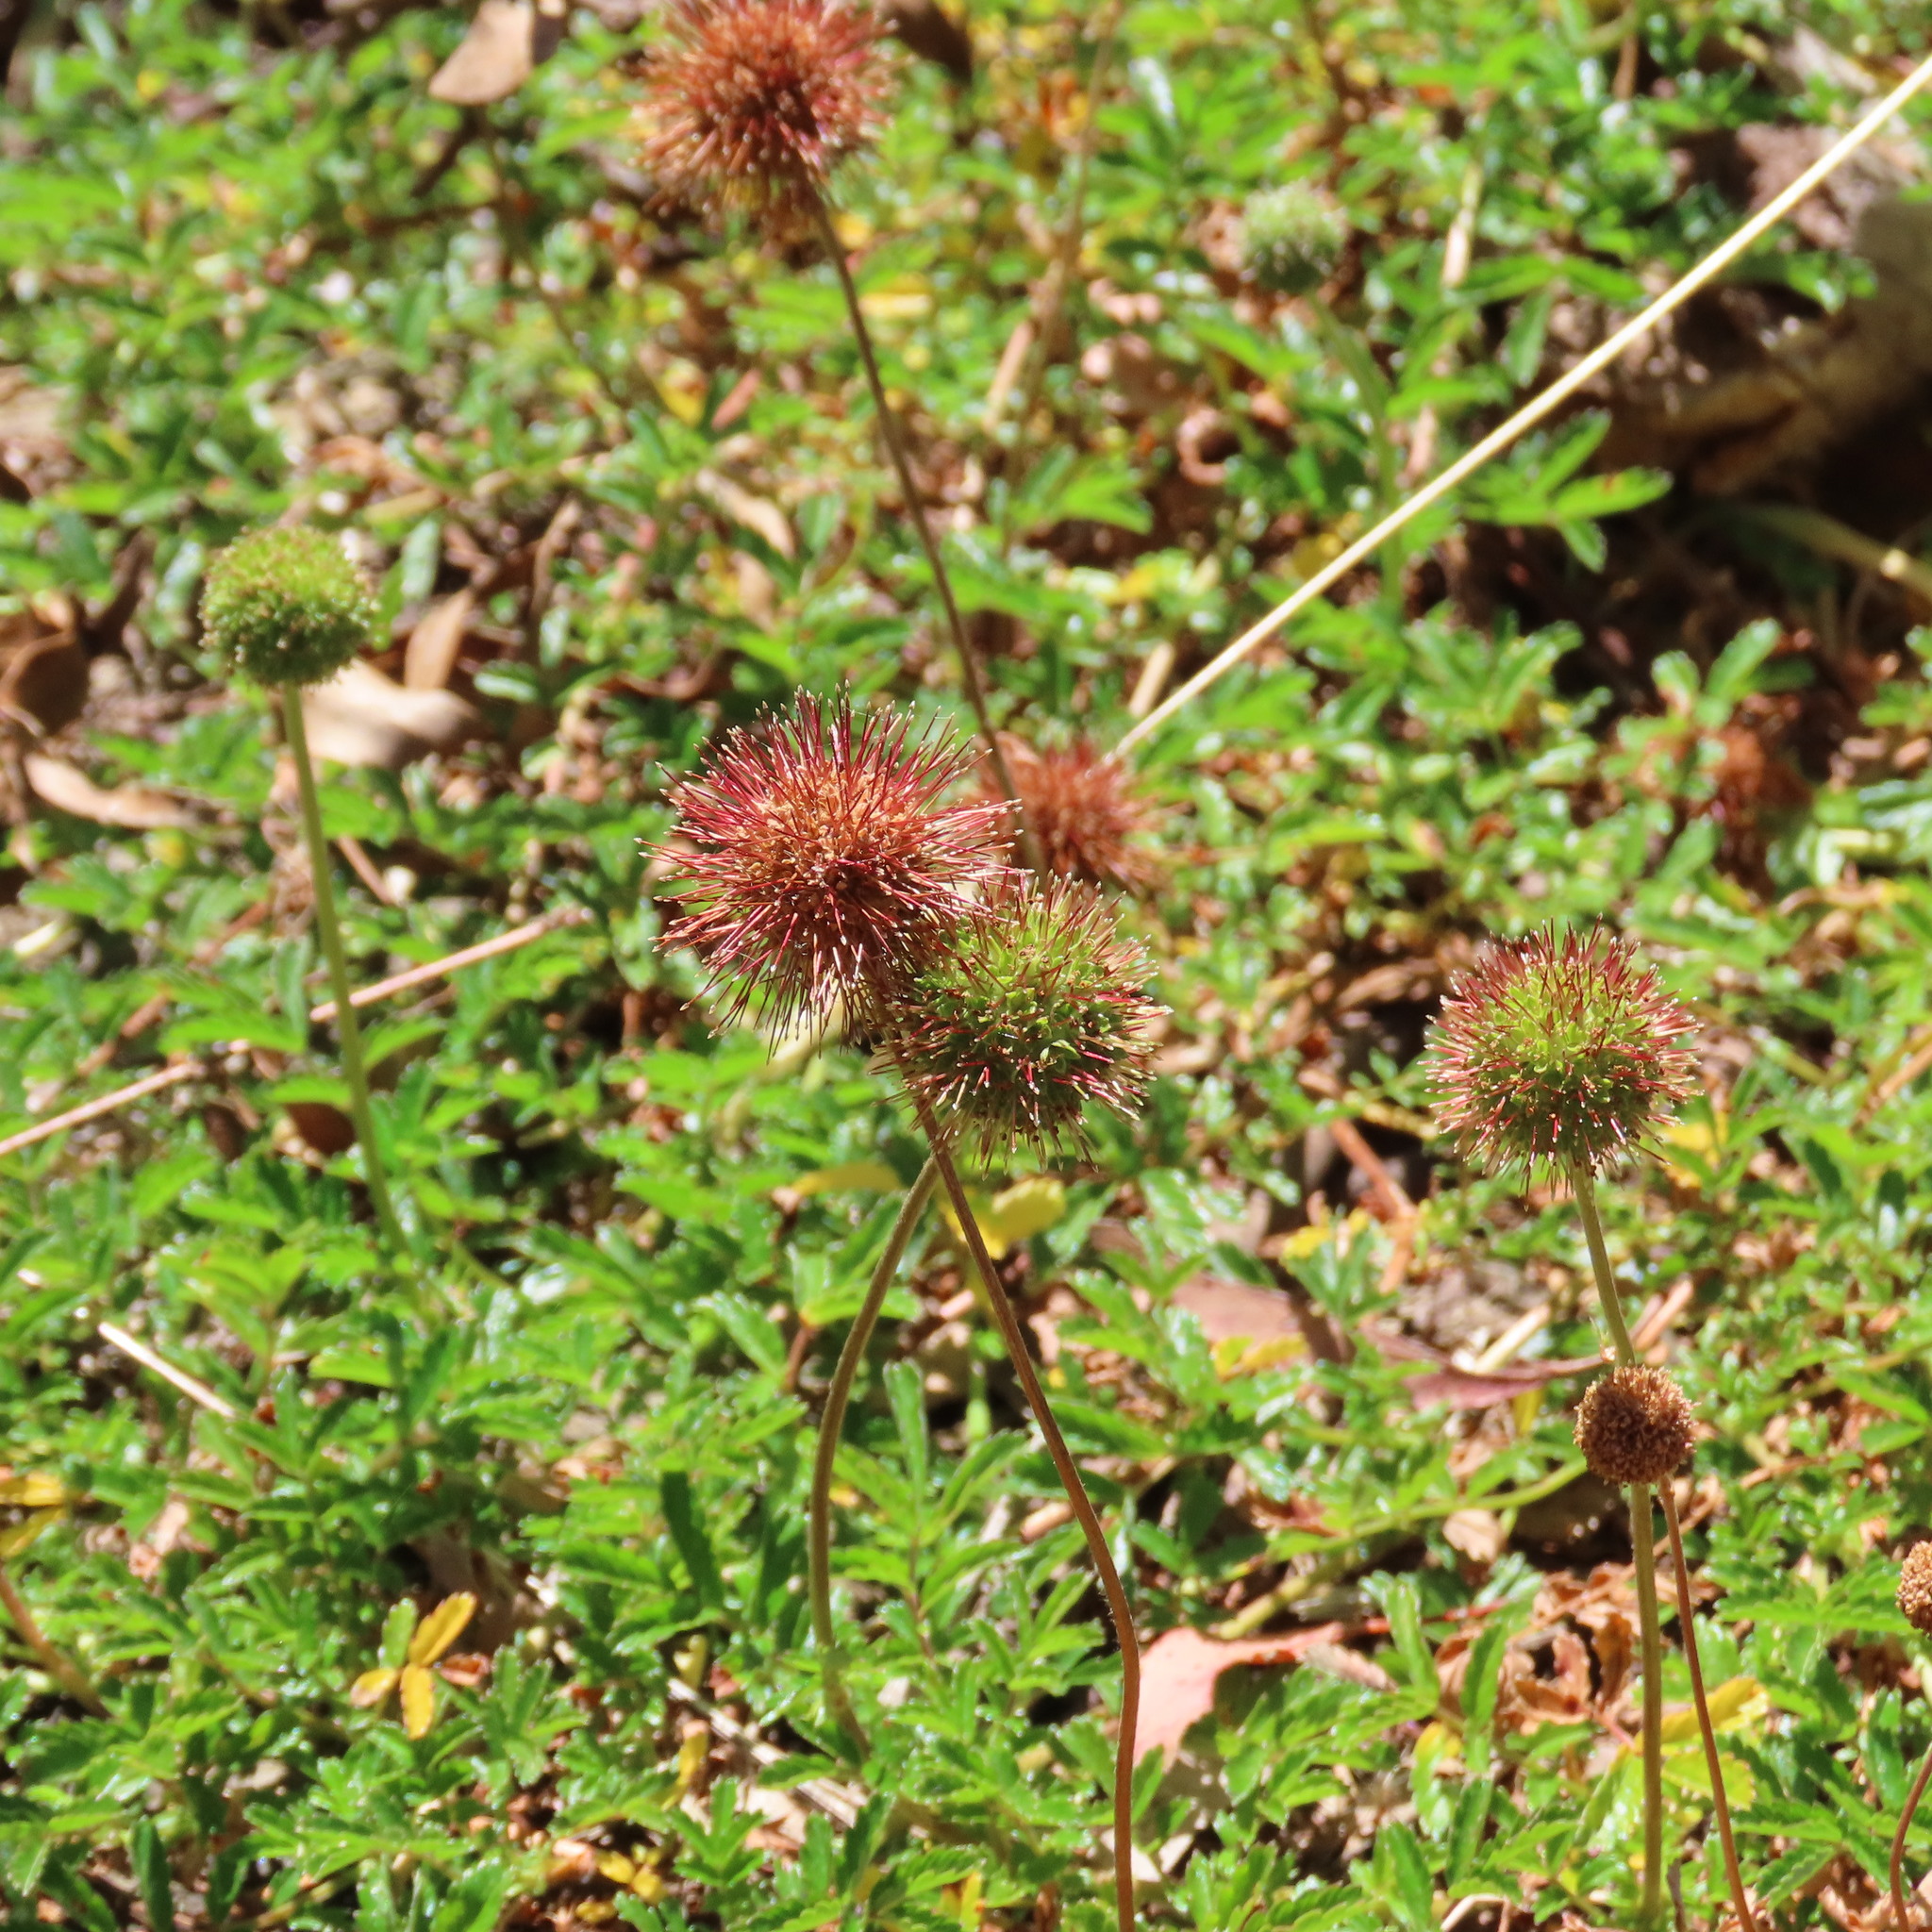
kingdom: Plantae
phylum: Tracheophyta
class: Magnoliopsida
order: Rosales
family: Rosaceae
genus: Acaena
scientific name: Acaena novae-zelandiae
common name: Pirri-pirri-bur
